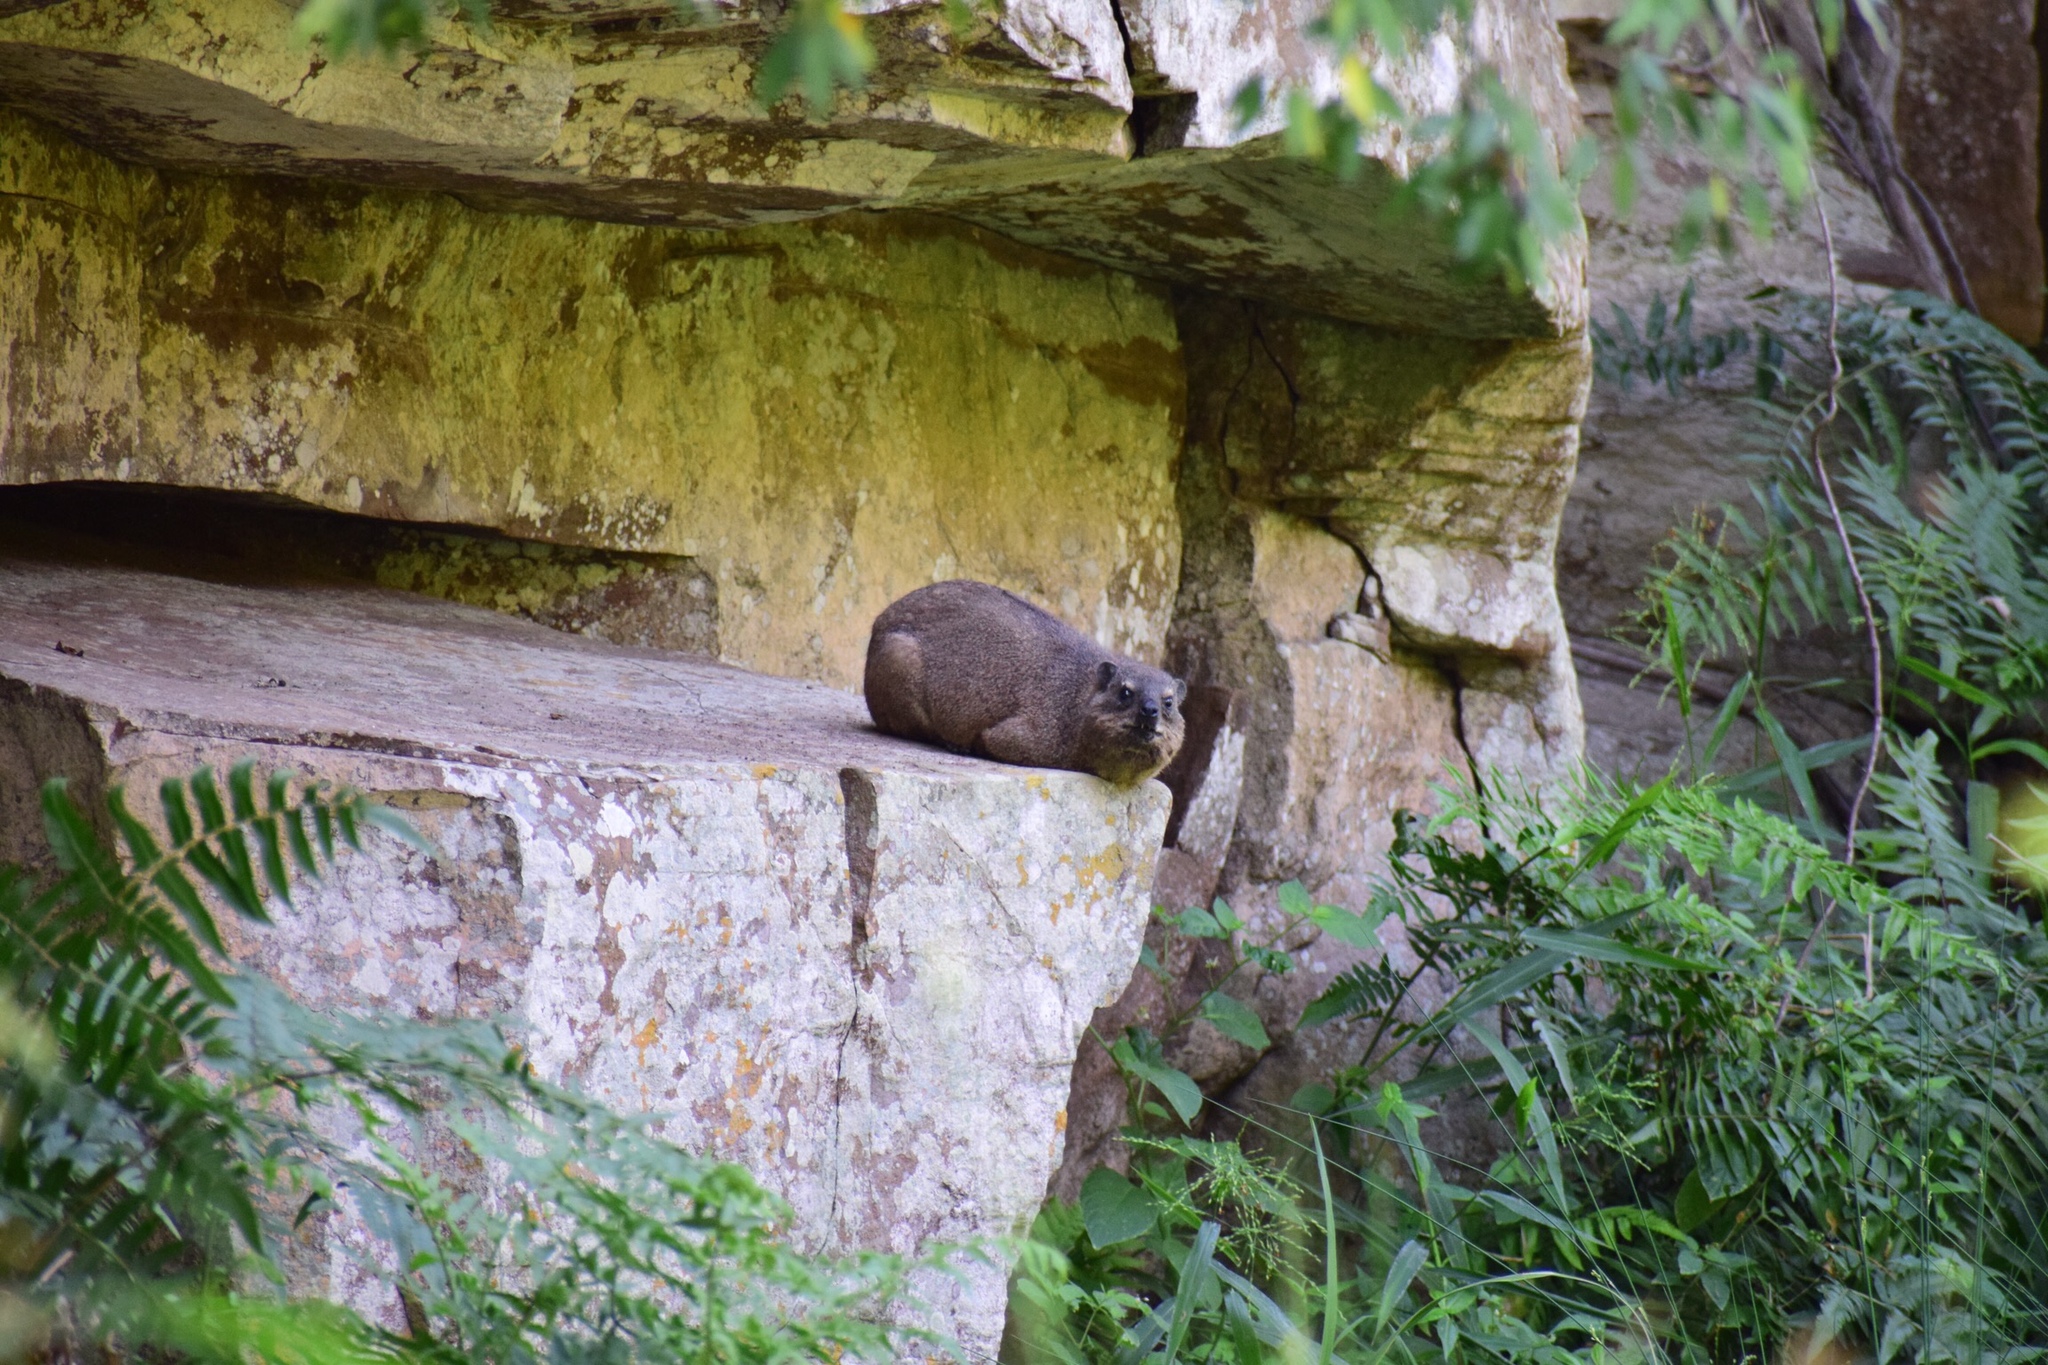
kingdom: Animalia
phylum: Chordata
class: Mammalia
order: Hyracoidea
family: Procaviidae
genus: Procavia
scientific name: Procavia capensis
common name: Rock hyrax
